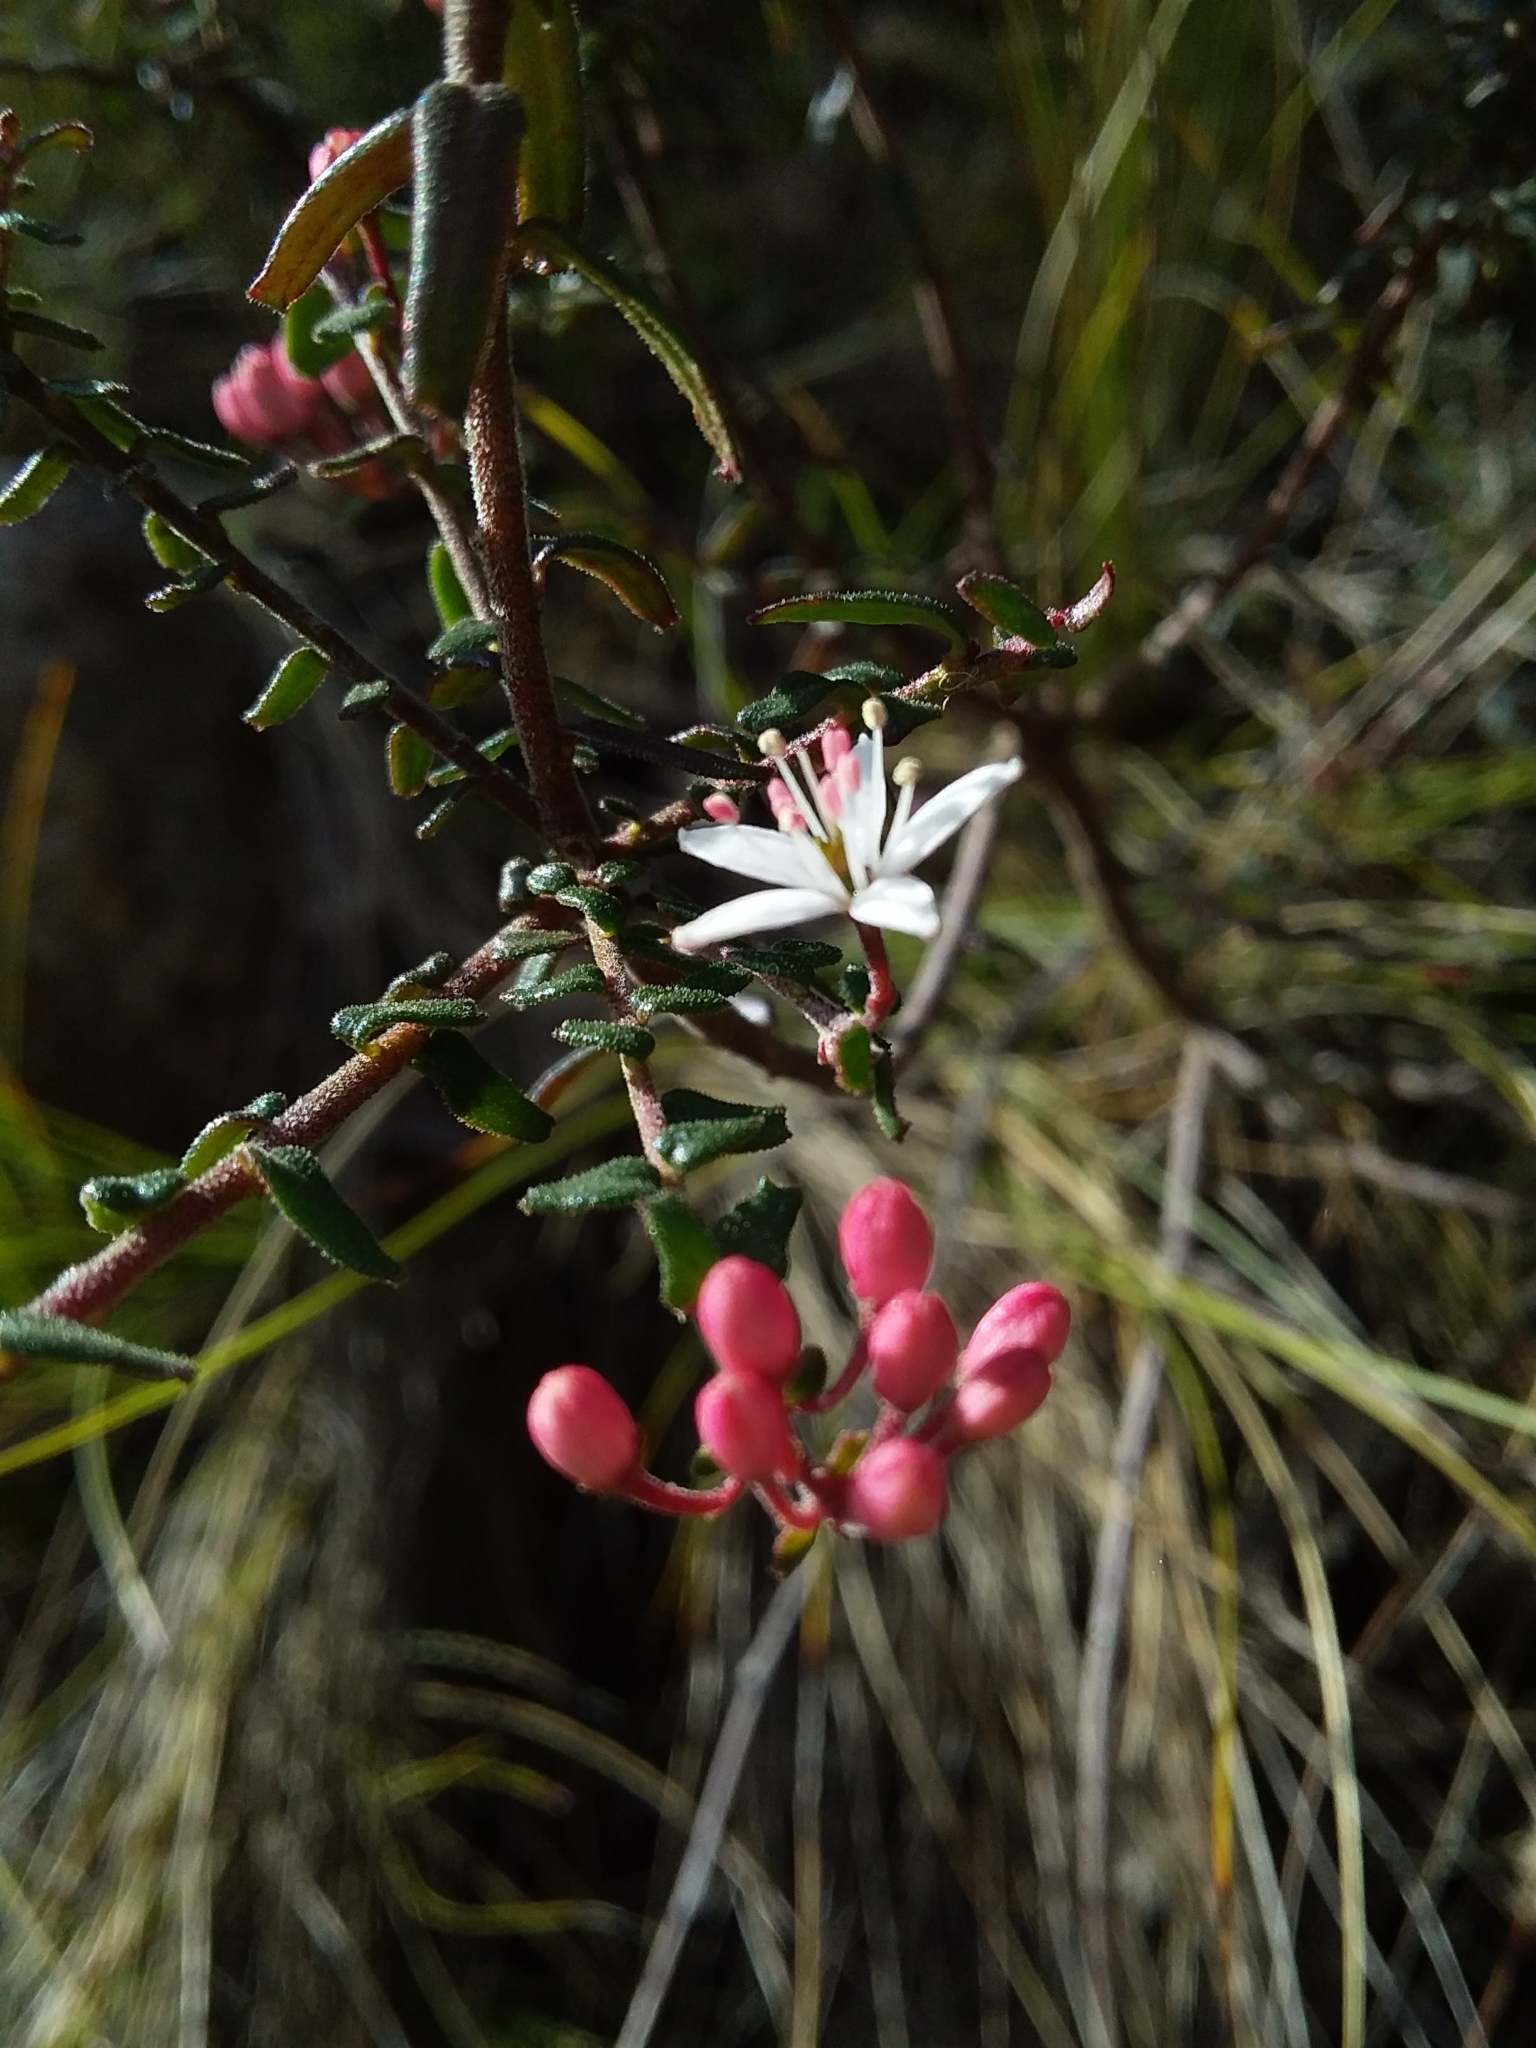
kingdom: Plantae
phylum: Tracheophyta
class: Magnoliopsida
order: Sapindales
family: Rutaceae
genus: Leionema
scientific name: Leionema hillebrandii
